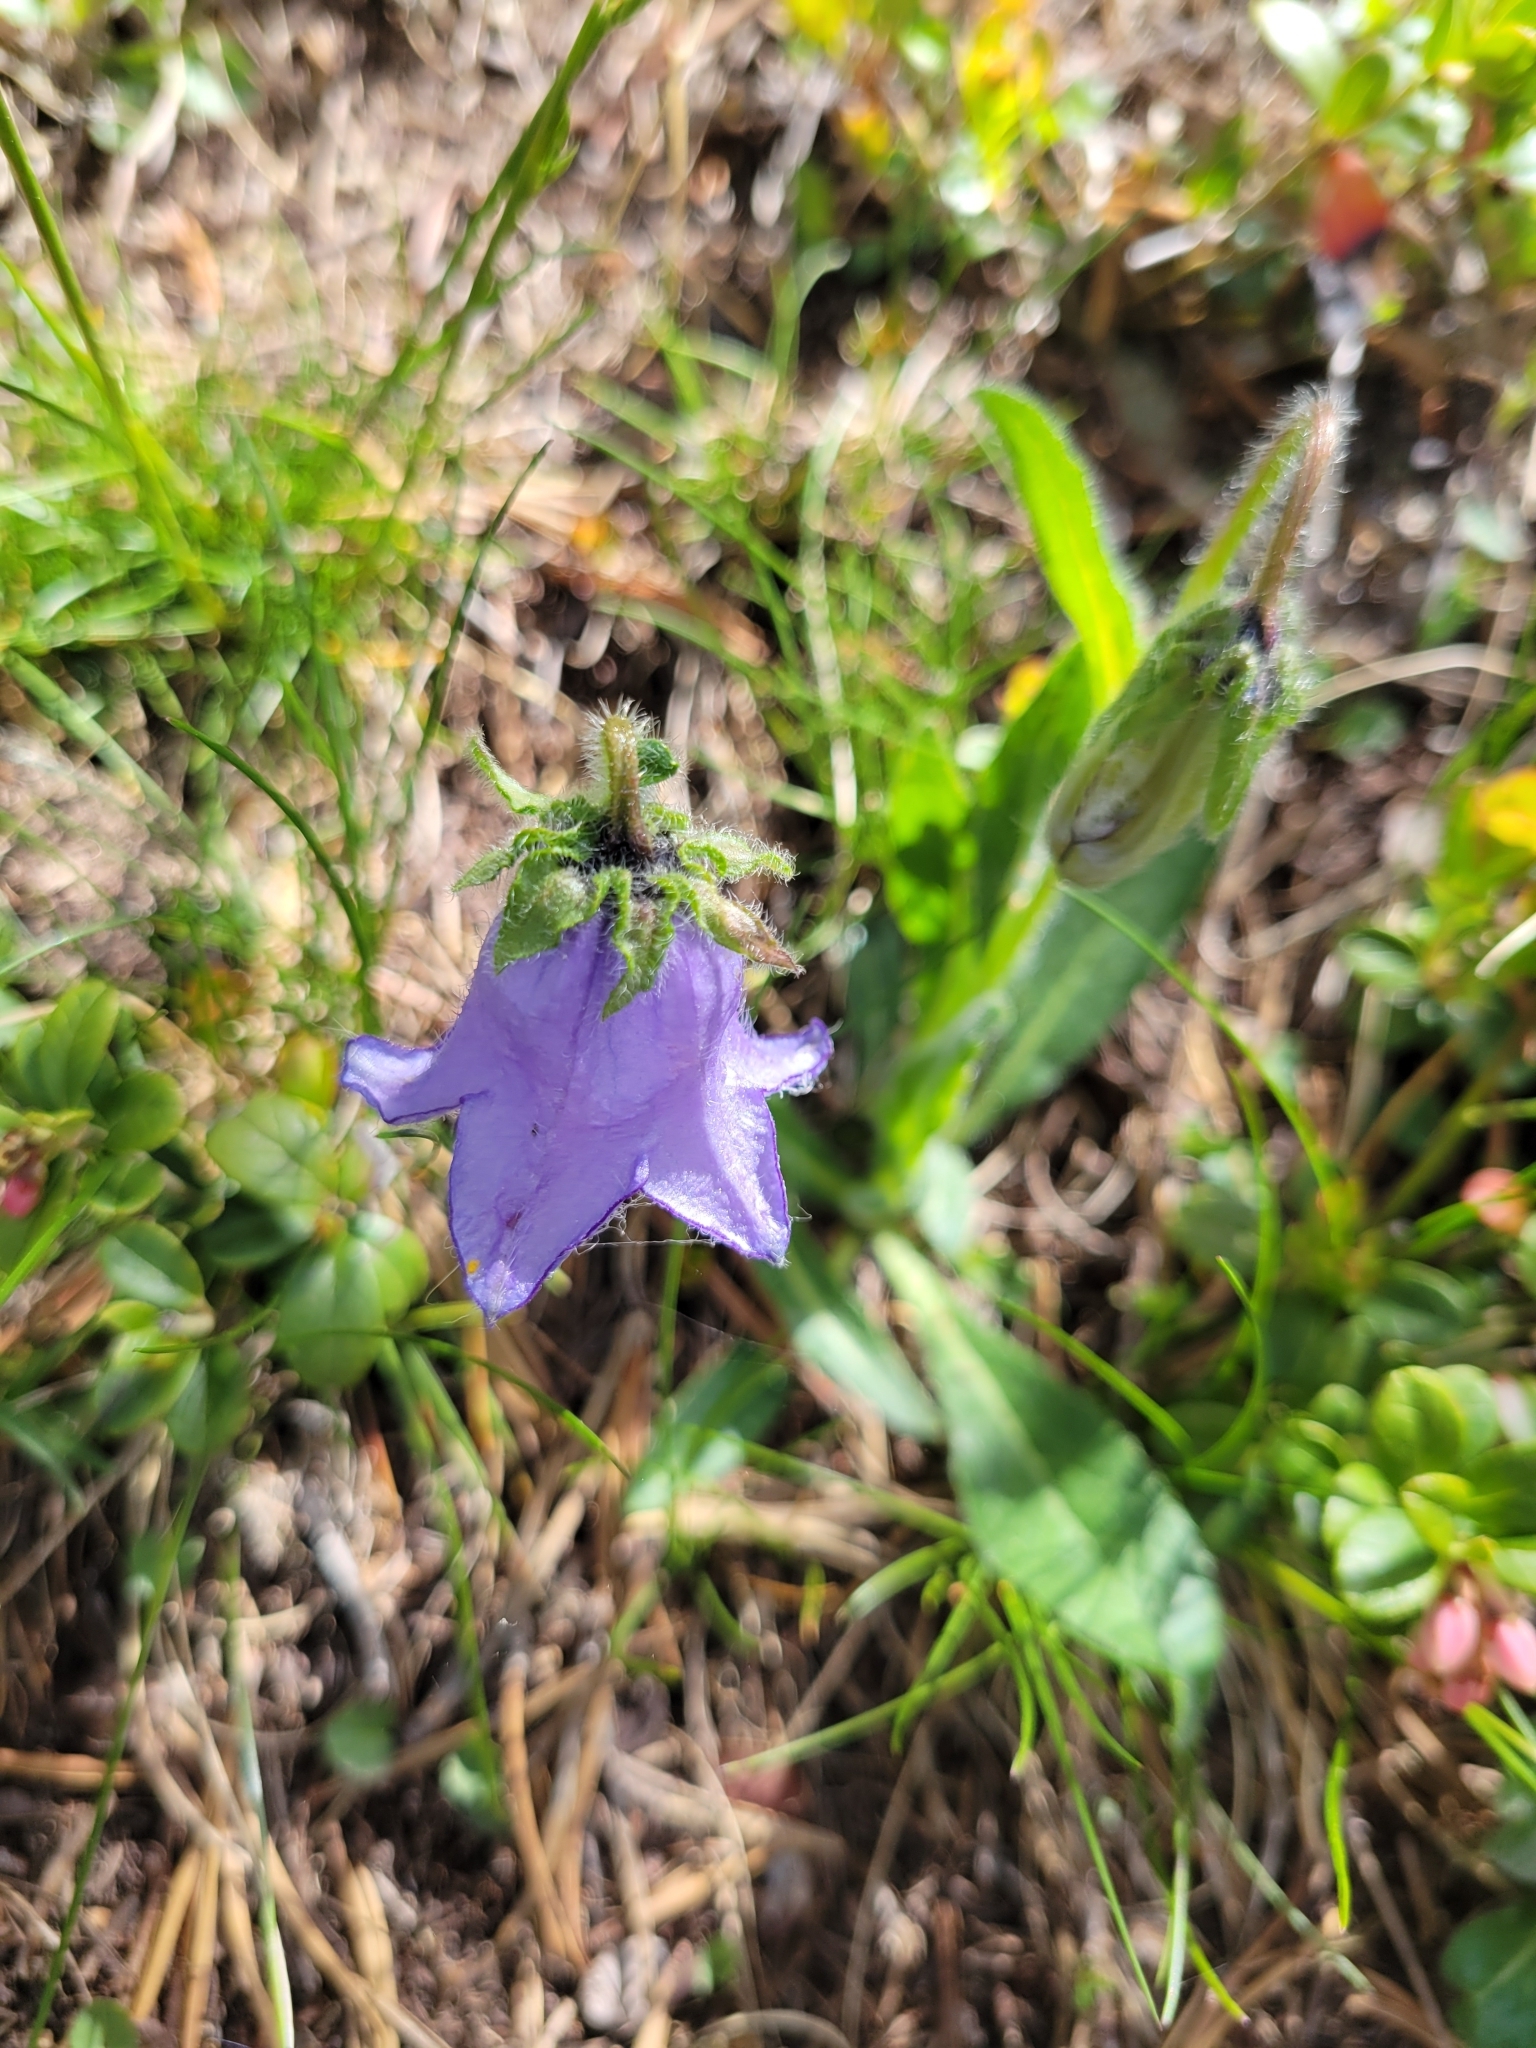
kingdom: Plantae
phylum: Tracheophyta
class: Magnoliopsida
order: Asterales
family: Campanulaceae
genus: Campanula
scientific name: Campanula barbata
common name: Bearded bellflower
